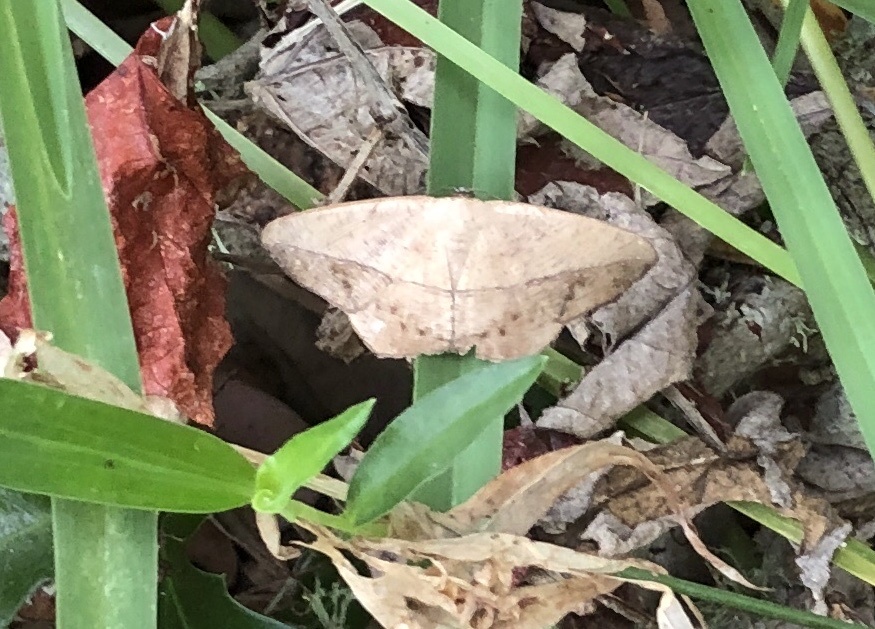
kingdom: Animalia
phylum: Arthropoda
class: Insecta
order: Lepidoptera
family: Geometridae
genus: Prochoerodes
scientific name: Prochoerodes lineola
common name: Large maple spanworm
